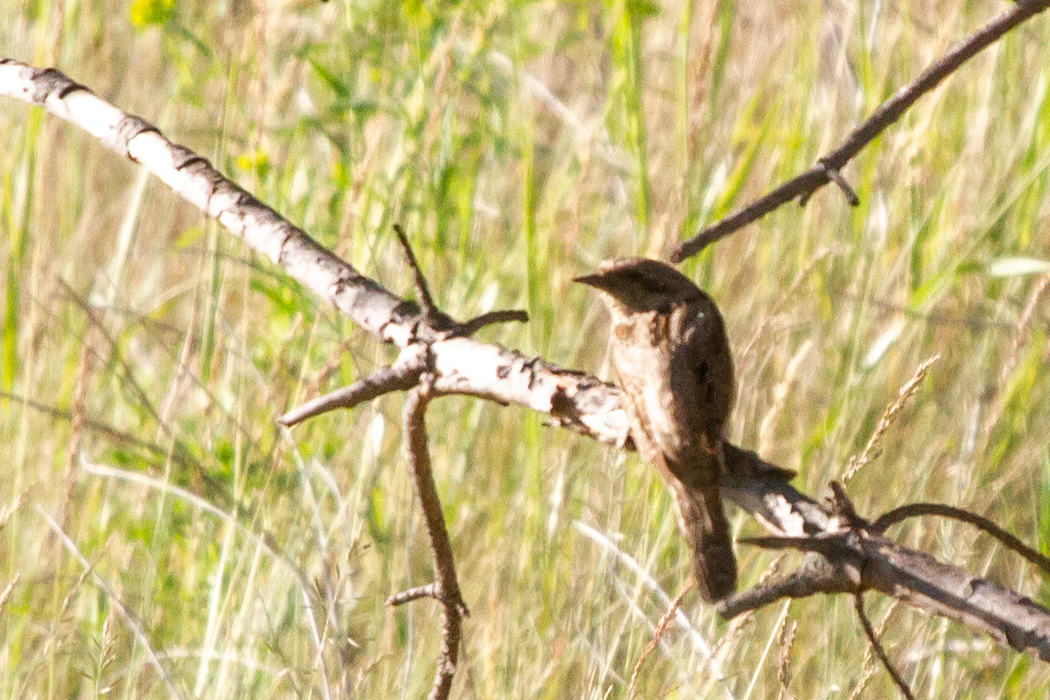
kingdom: Animalia
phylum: Chordata
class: Aves
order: Piciformes
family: Picidae
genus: Jynx
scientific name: Jynx torquilla
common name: Eurasian wryneck
